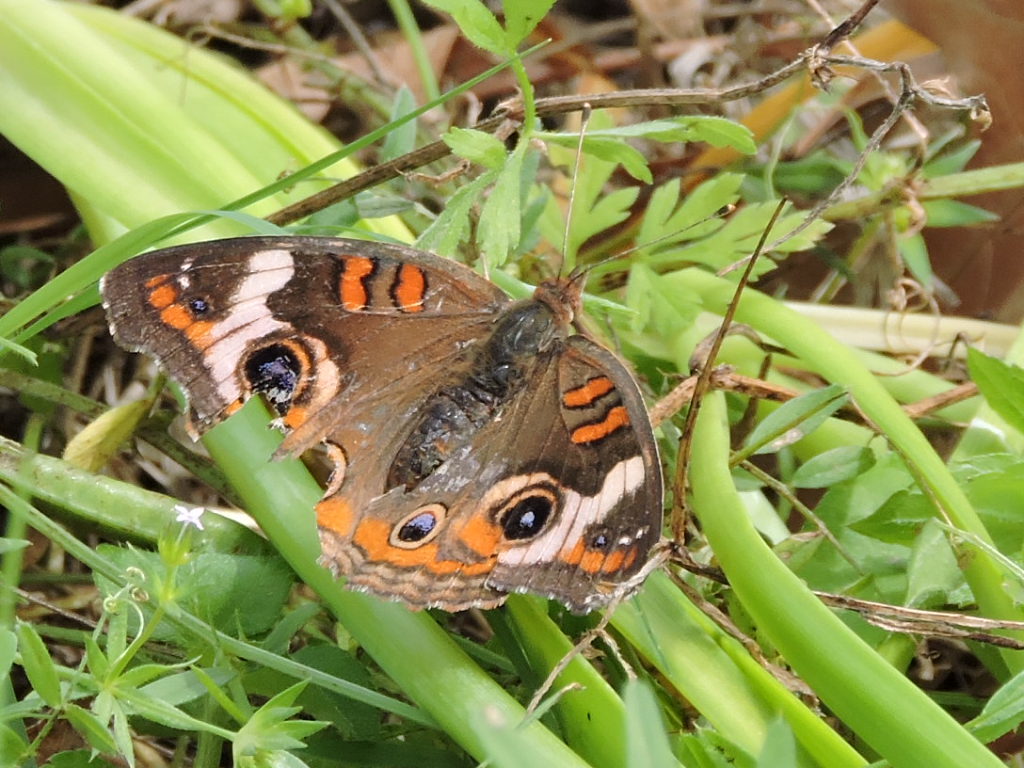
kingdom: Animalia
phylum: Arthropoda
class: Insecta
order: Lepidoptera
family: Nymphalidae
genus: Junonia
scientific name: Junonia coenia
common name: Common buckeye
